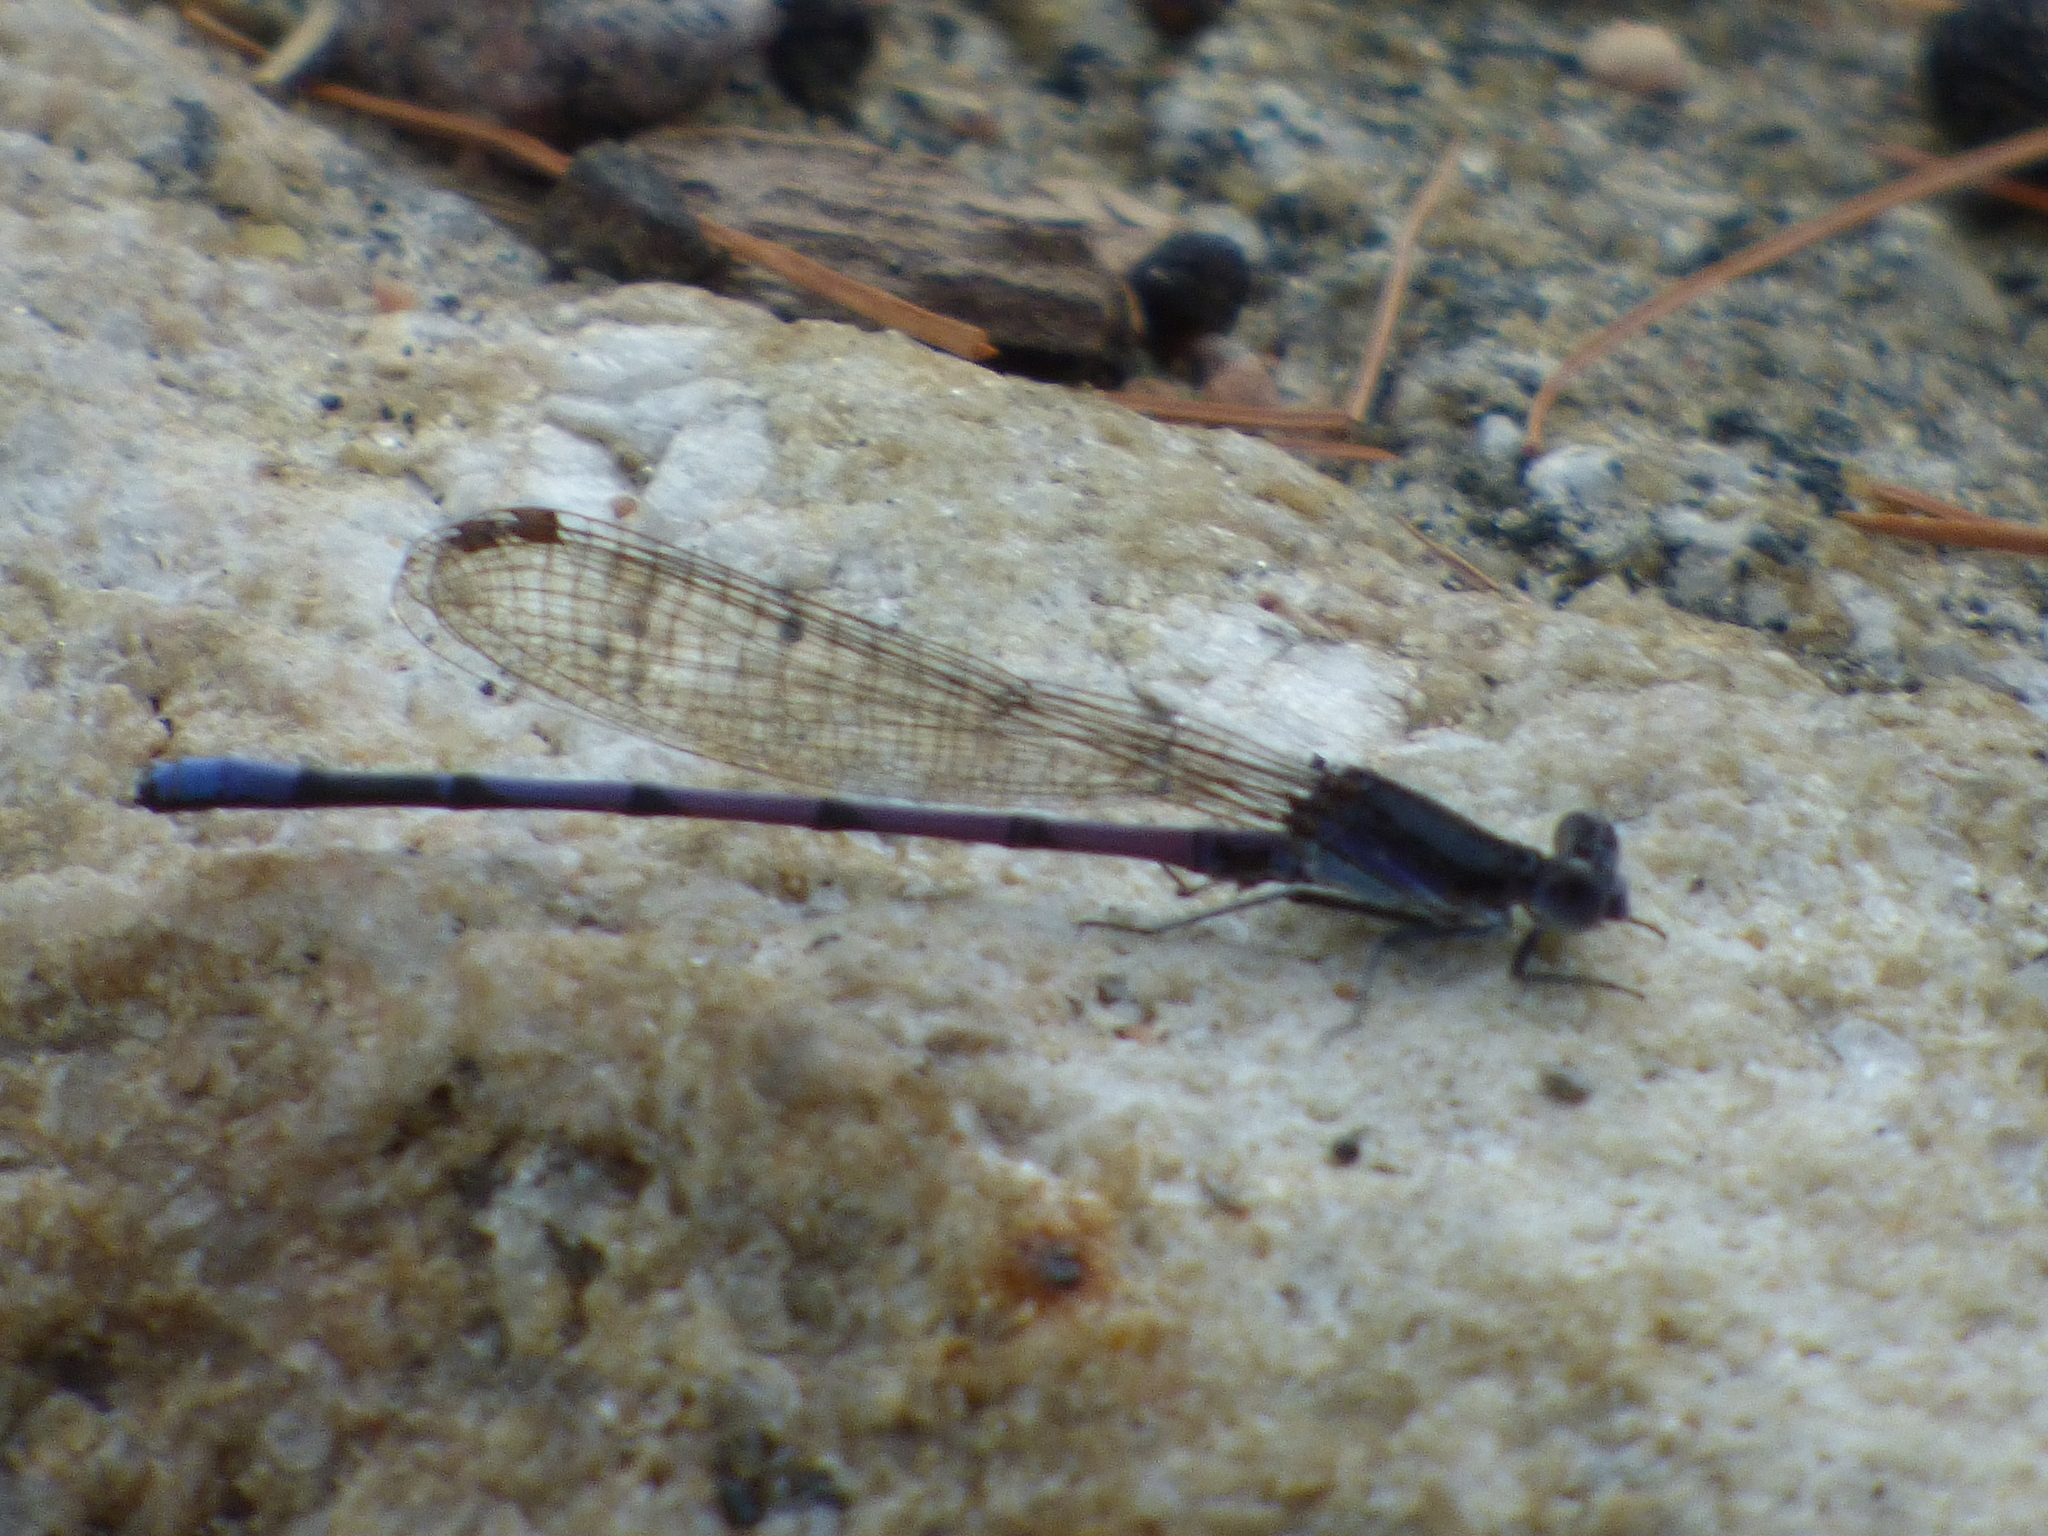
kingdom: Animalia
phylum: Arthropoda
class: Insecta
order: Odonata
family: Coenagrionidae
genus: Argia
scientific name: Argia fumipennis
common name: Variable dancer
